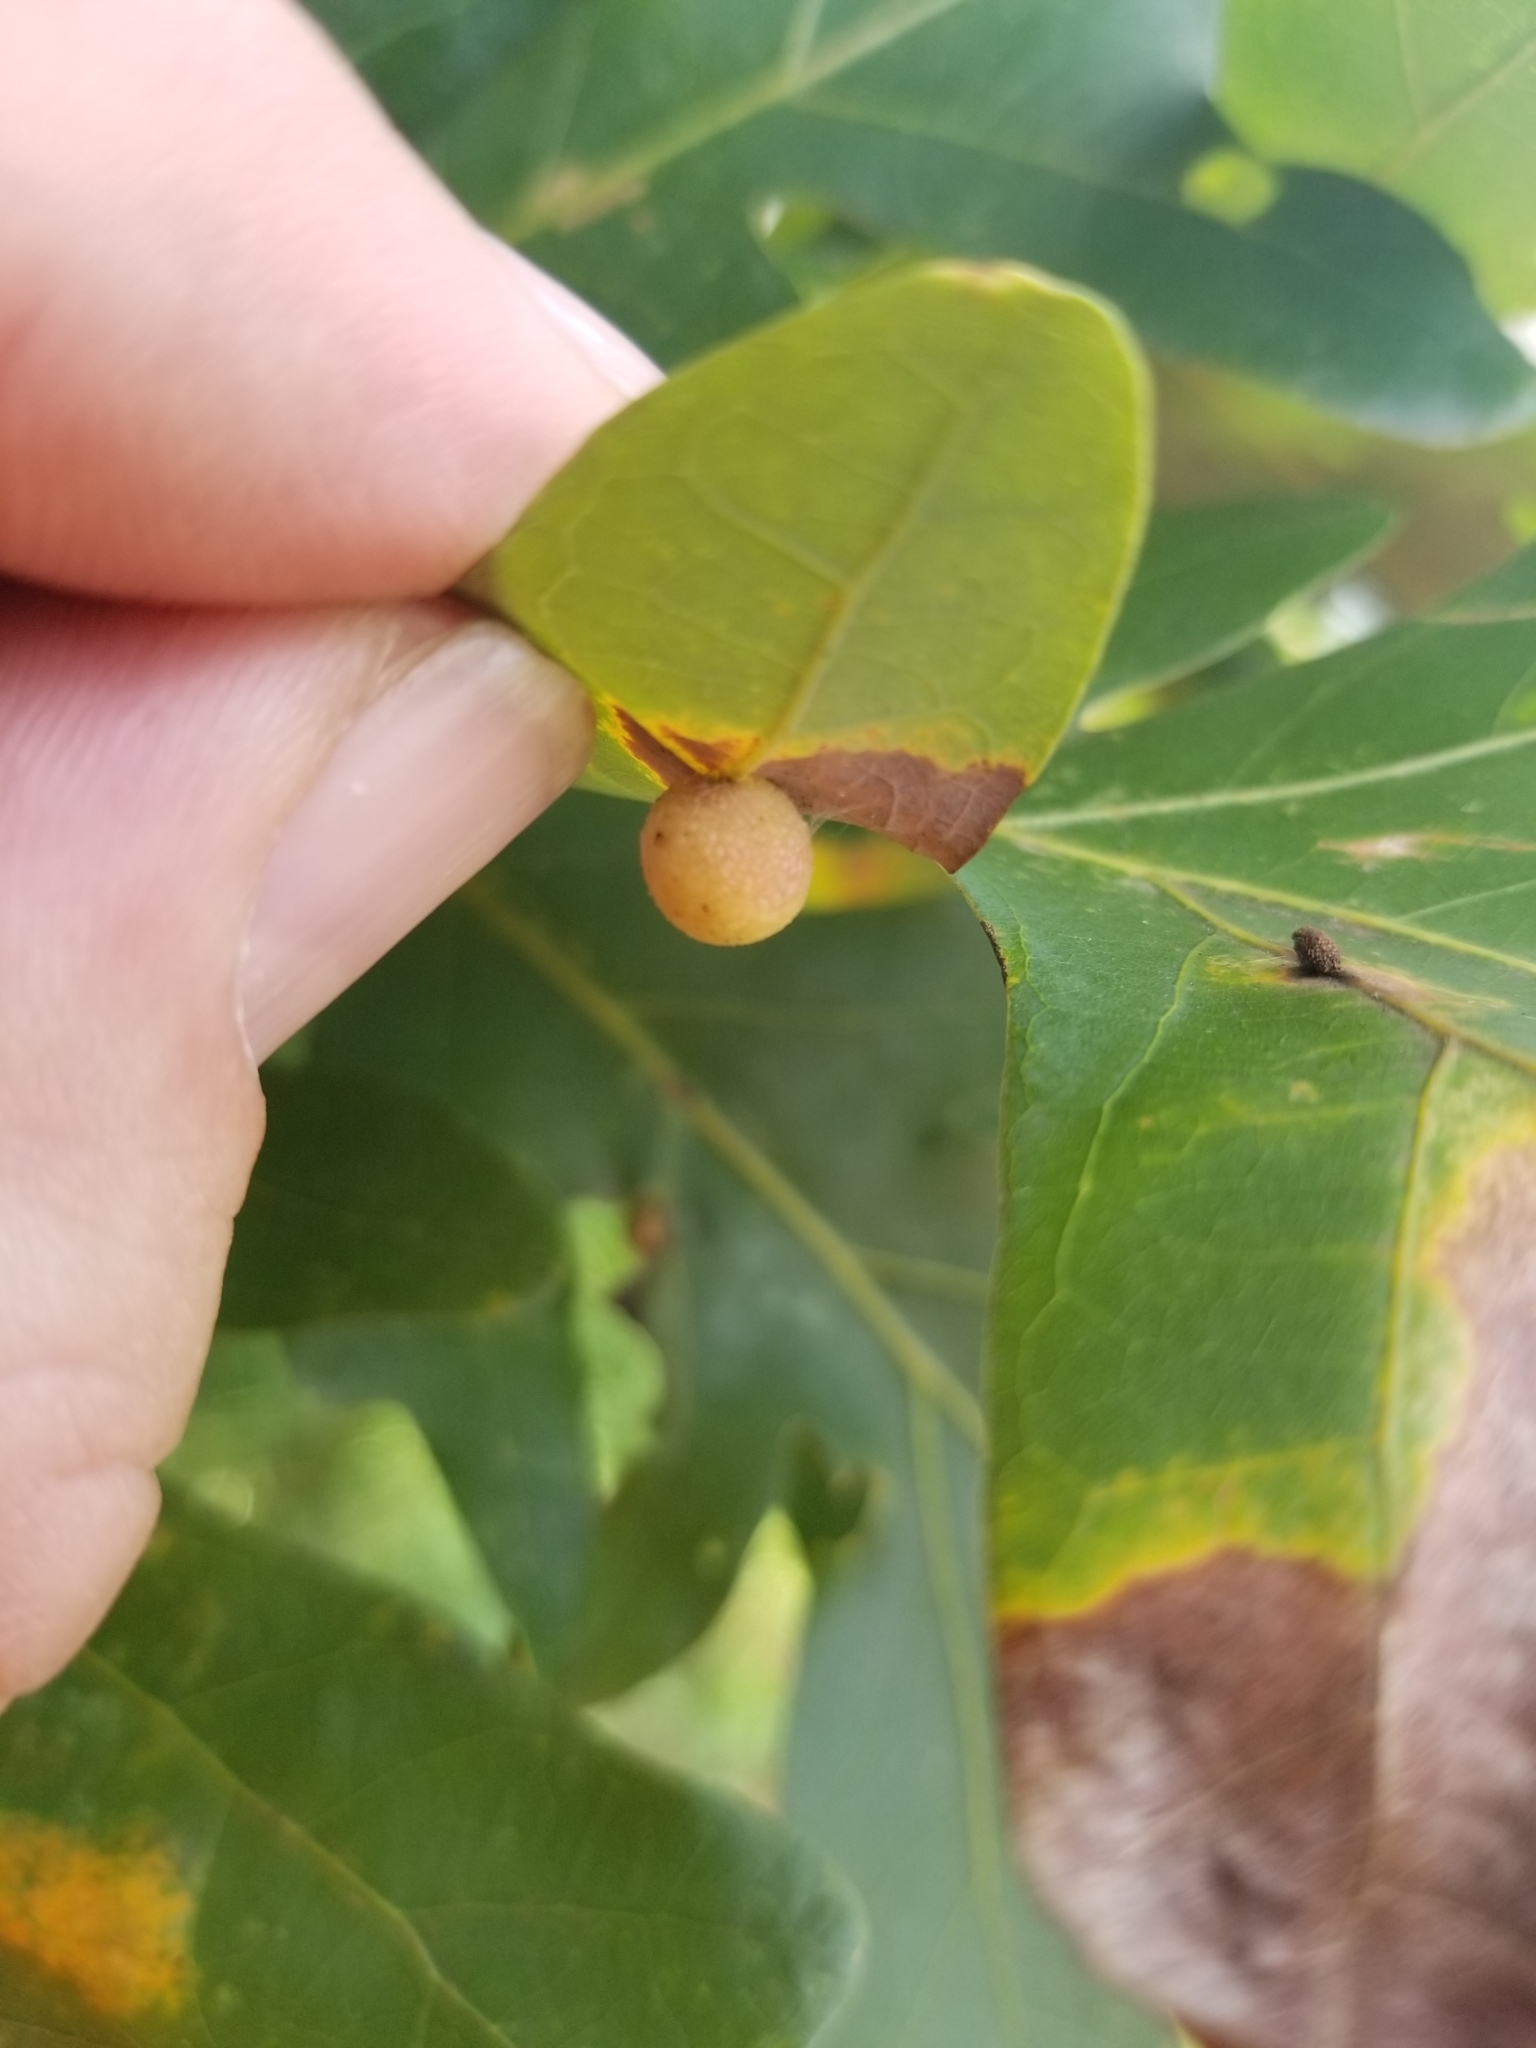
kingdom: Animalia
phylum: Arthropoda
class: Insecta
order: Hymenoptera
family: Cynipidae
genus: Acraspis
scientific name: Acraspis
